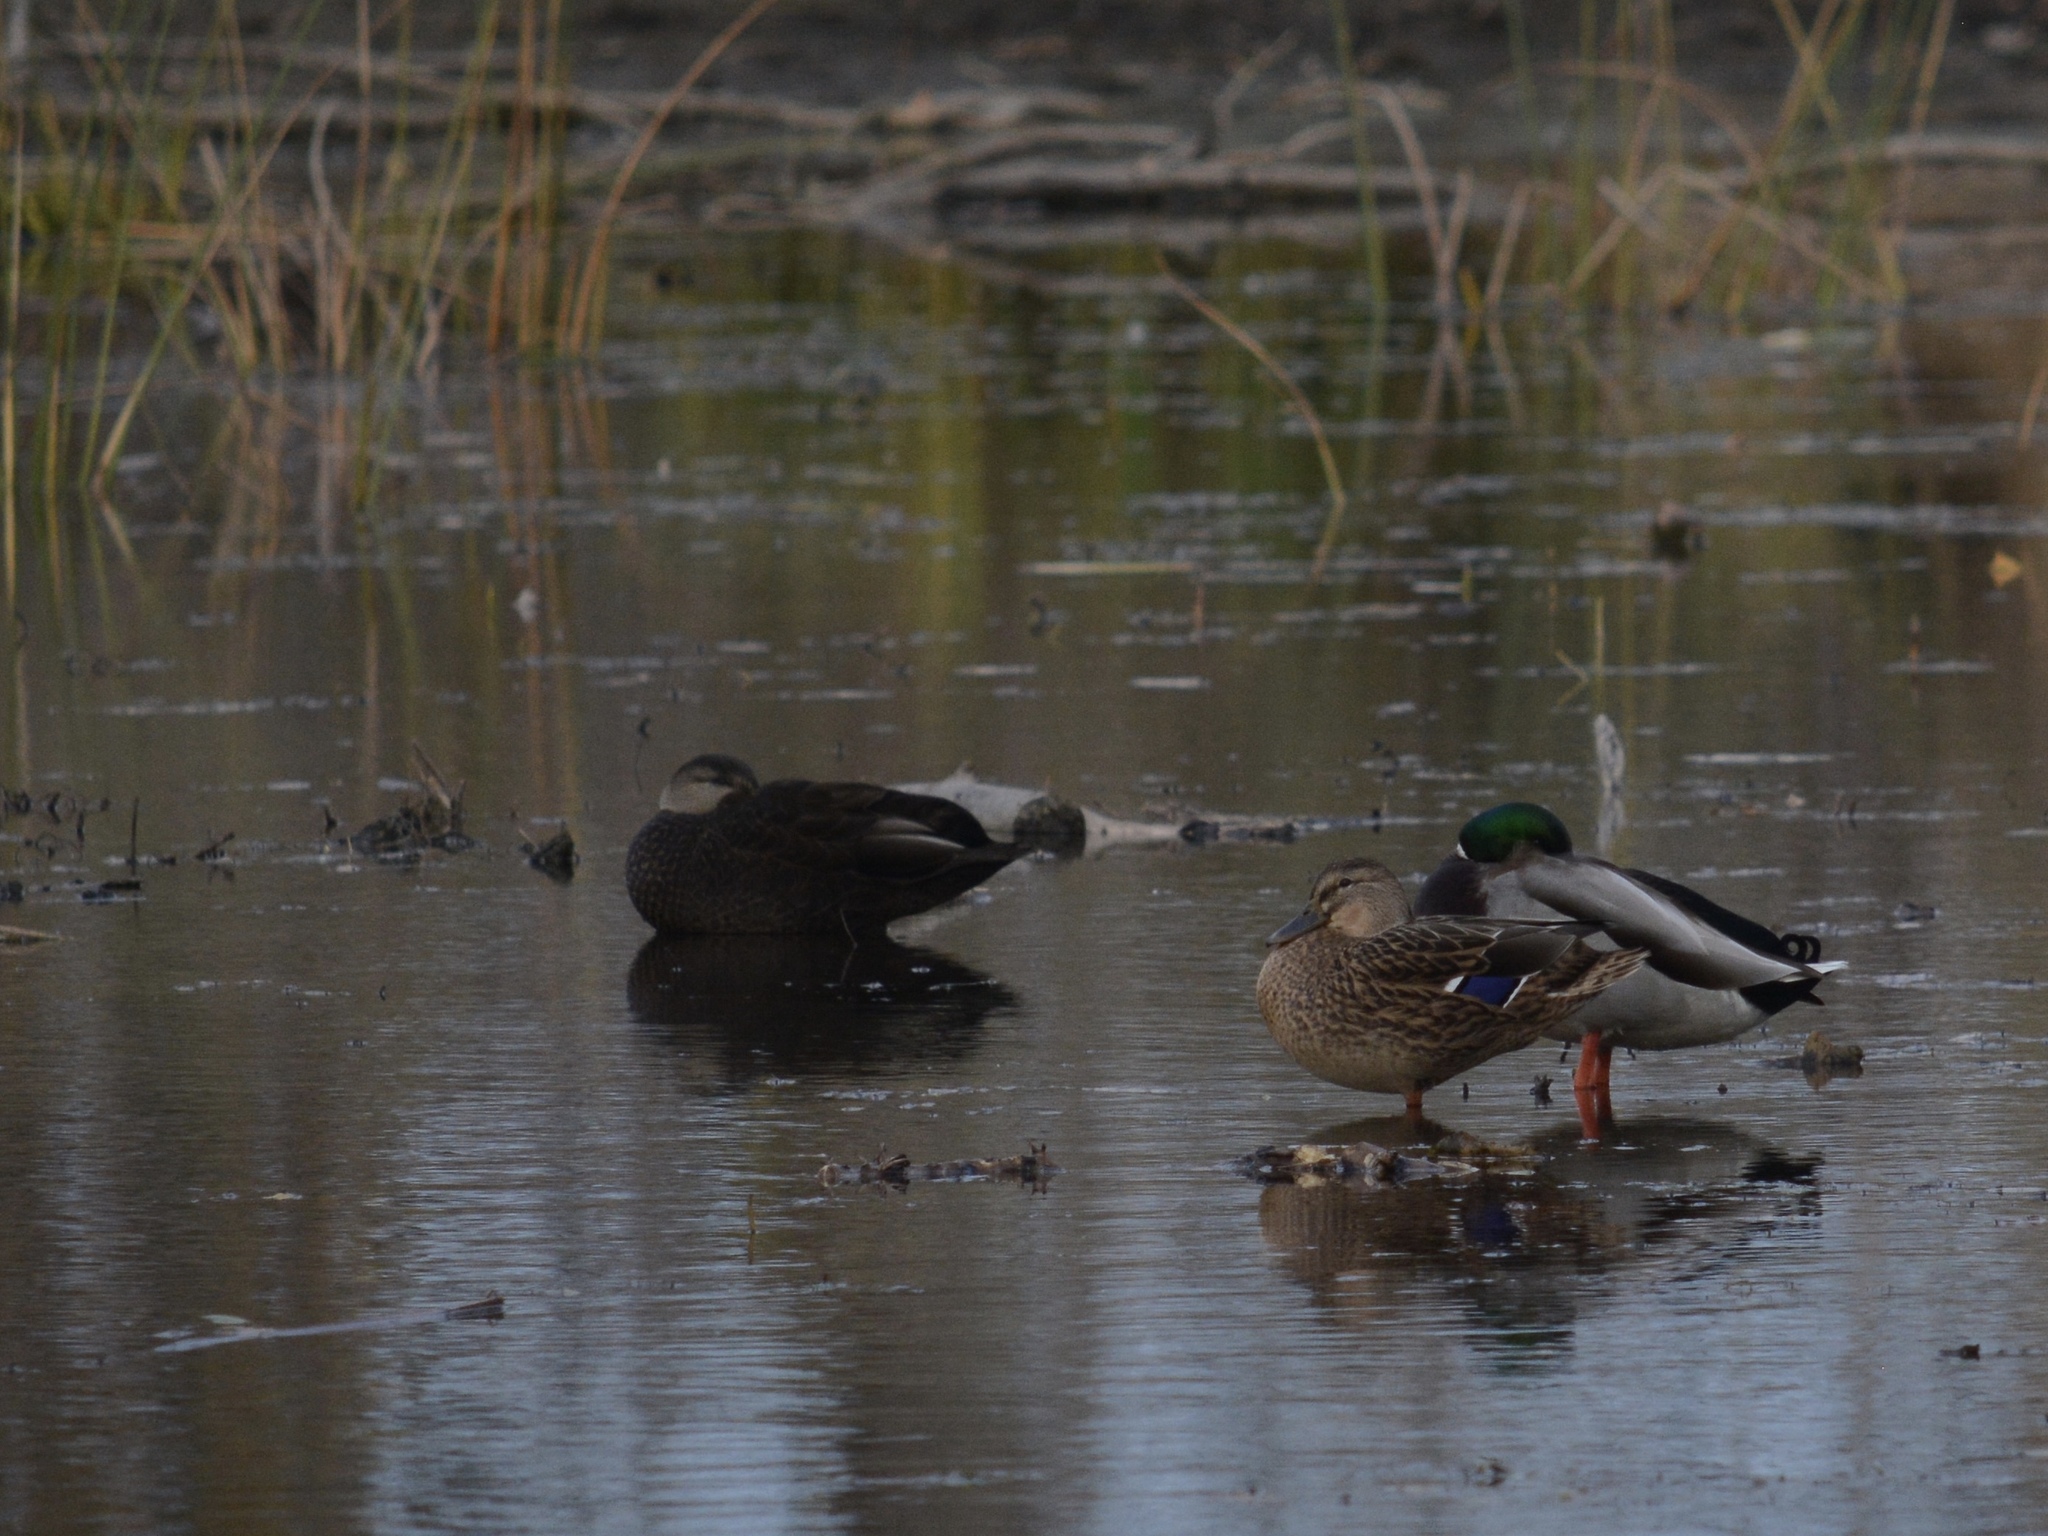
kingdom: Animalia
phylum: Chordata
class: Aves
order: Anseriformes
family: Anatidae
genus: Anas
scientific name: Anas platyrhynchos
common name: Mallard
